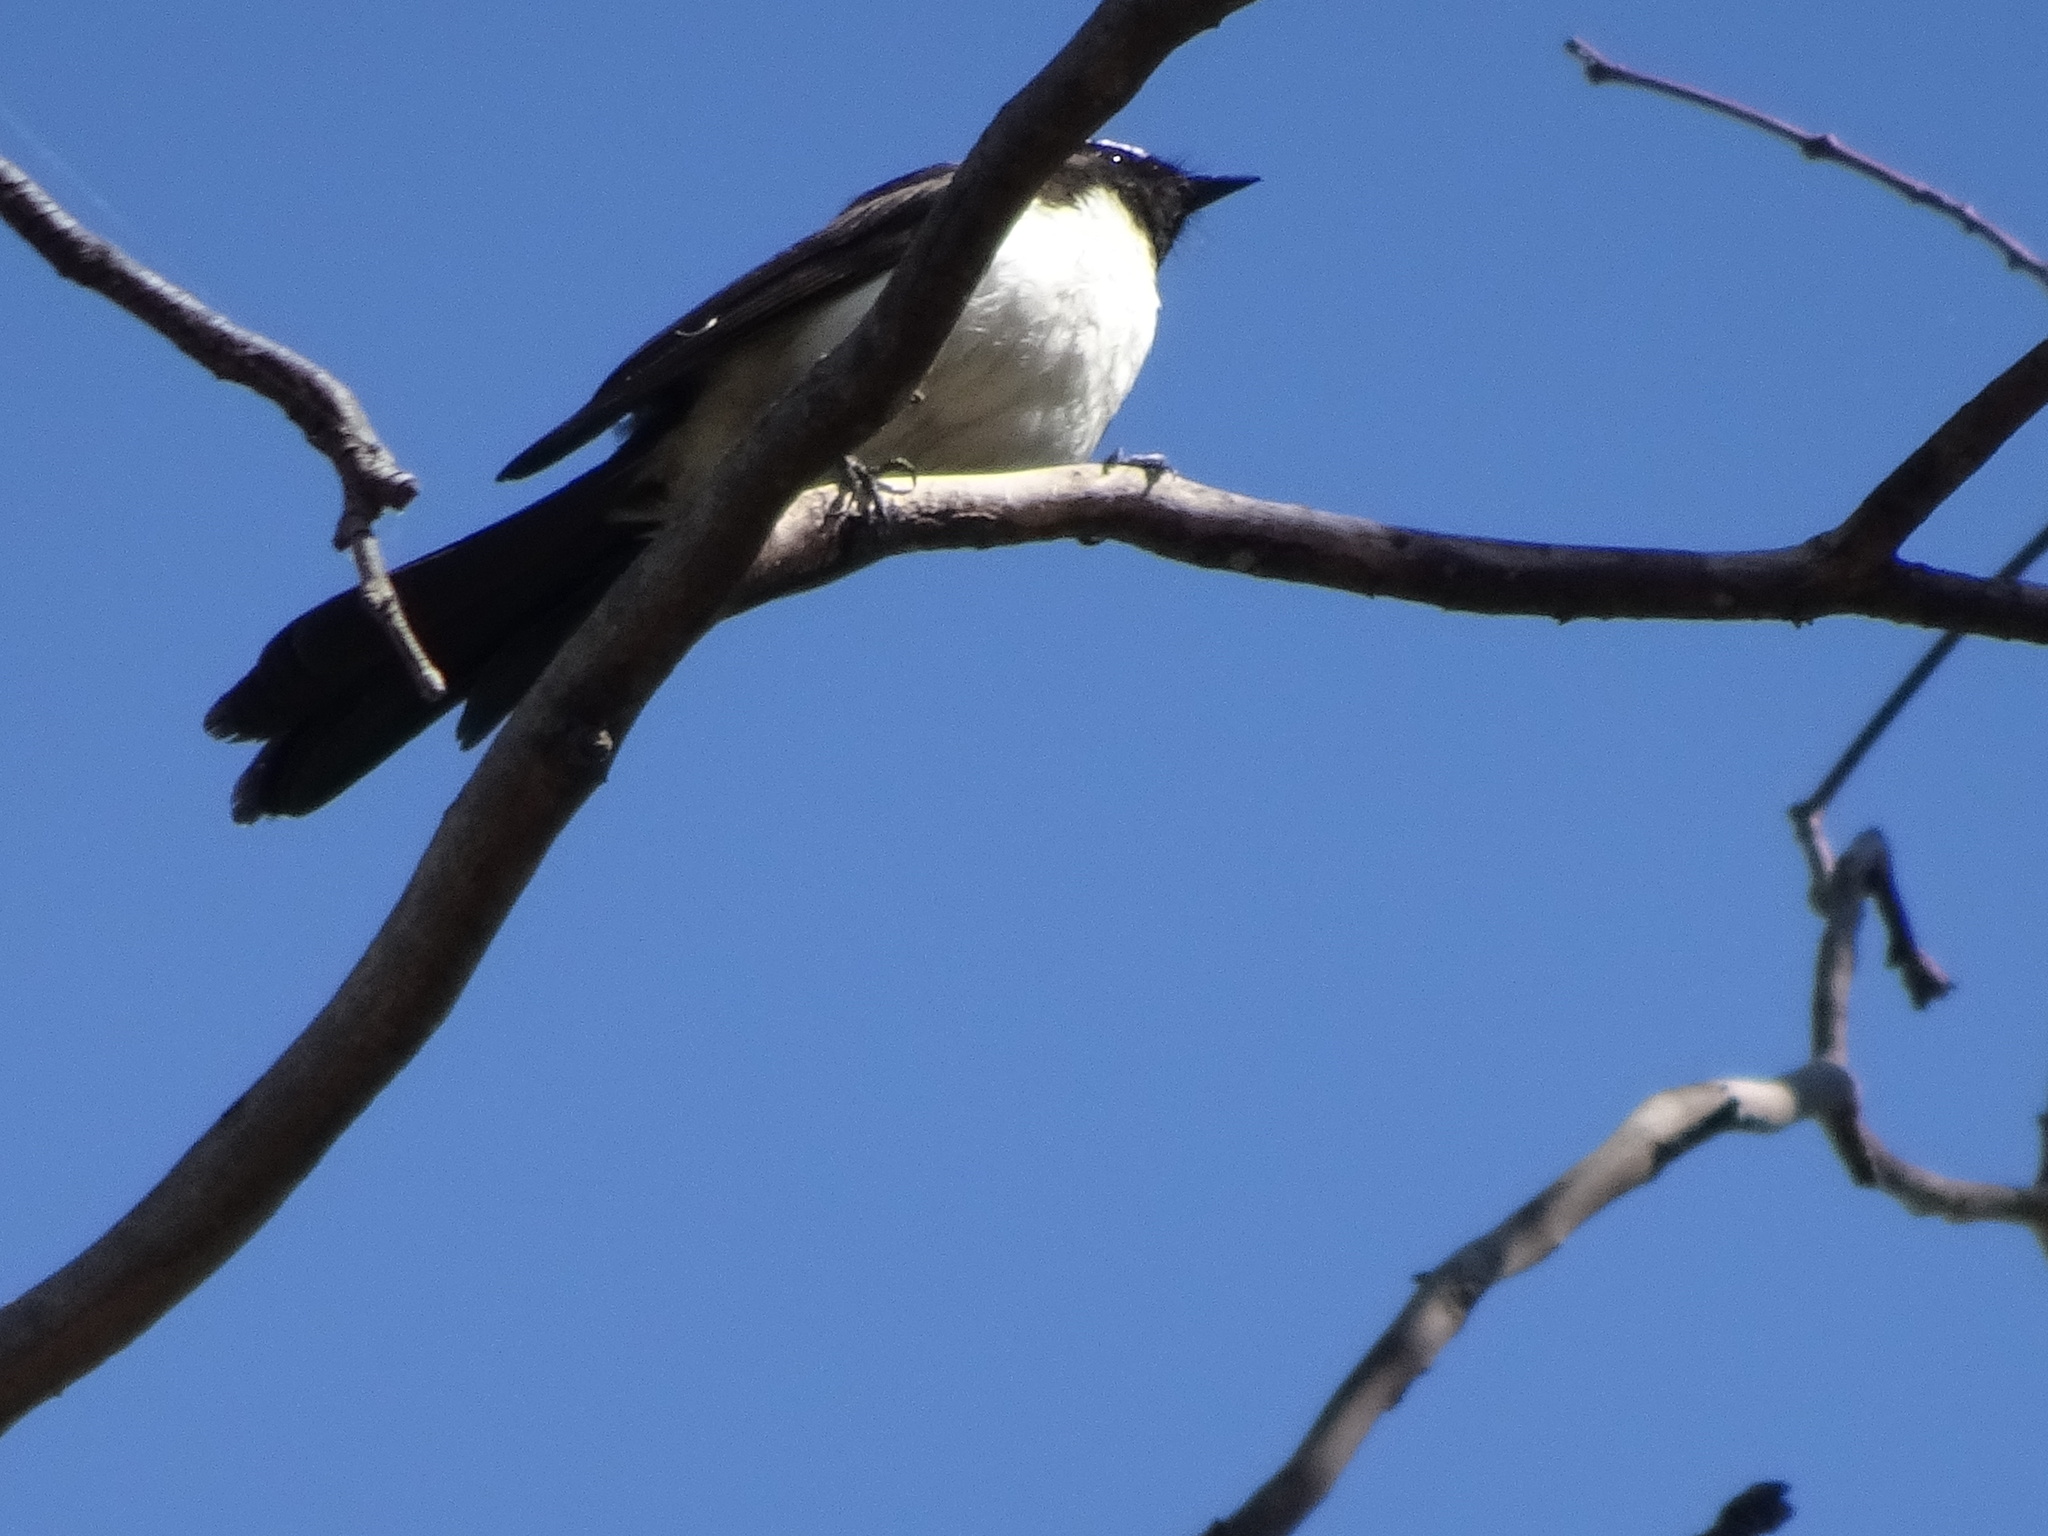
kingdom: Animalia
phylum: Chordata
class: Aves
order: Passeriformes
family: Rhipiduridae
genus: Rhipidura
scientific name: Rhipidura leucophrys
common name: Willie wagtail
